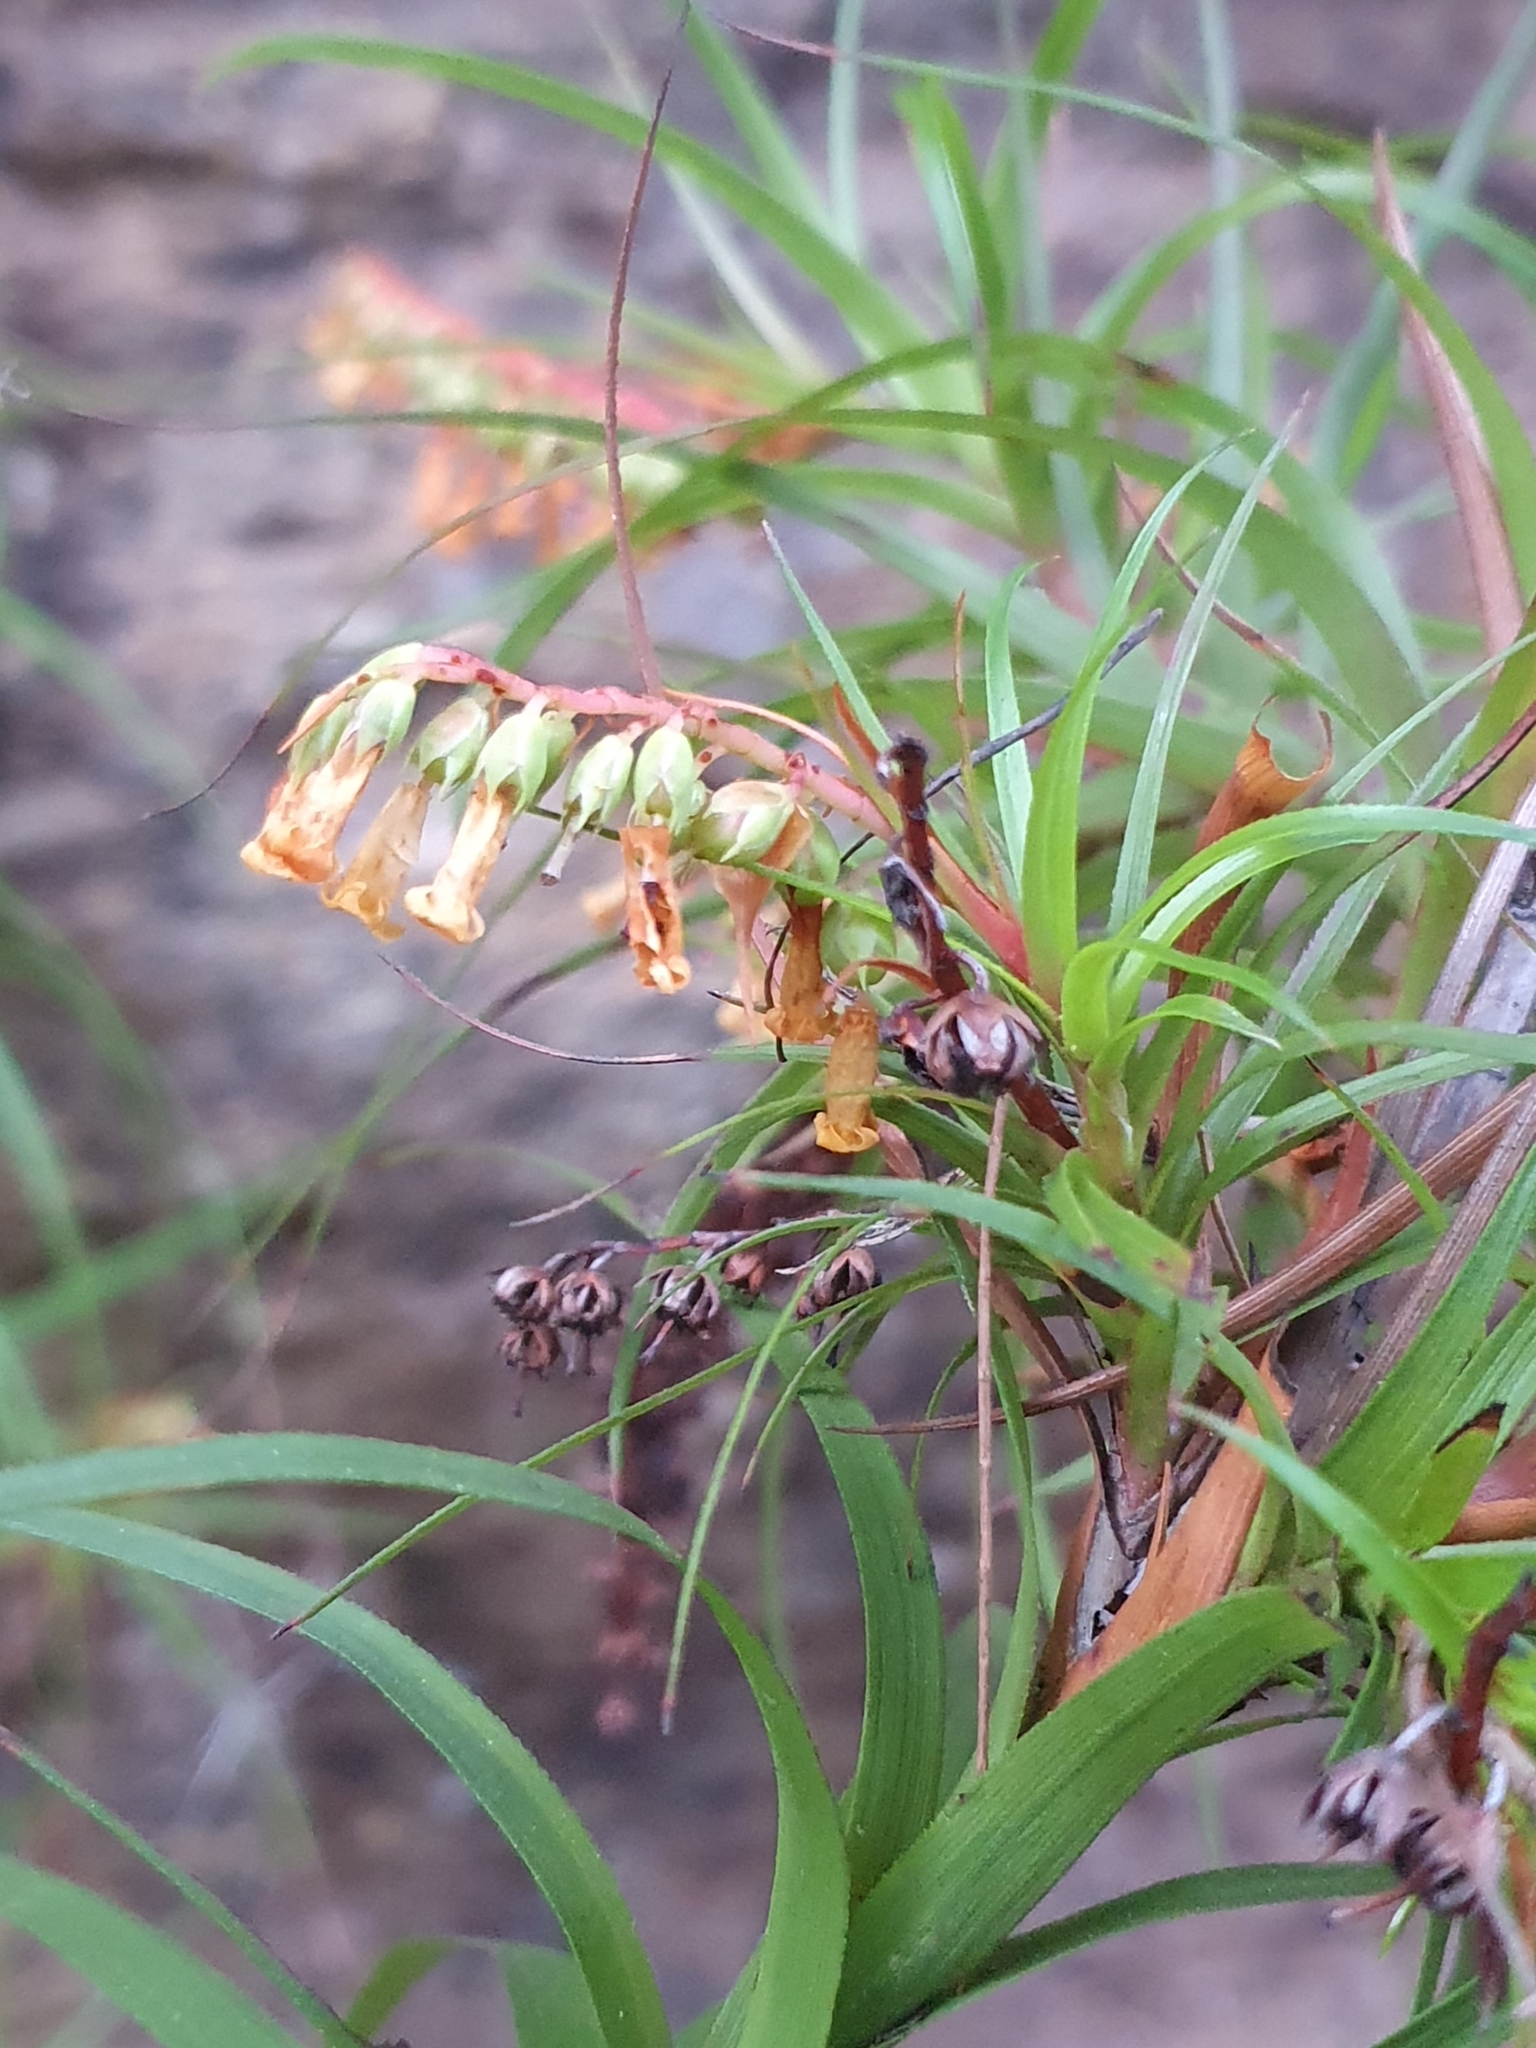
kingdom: Plantae
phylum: Tracheophyta
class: Magnoliopsida
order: Ericales
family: Ericaceae
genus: Dracophyllum
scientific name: Dracophyllum secundum
